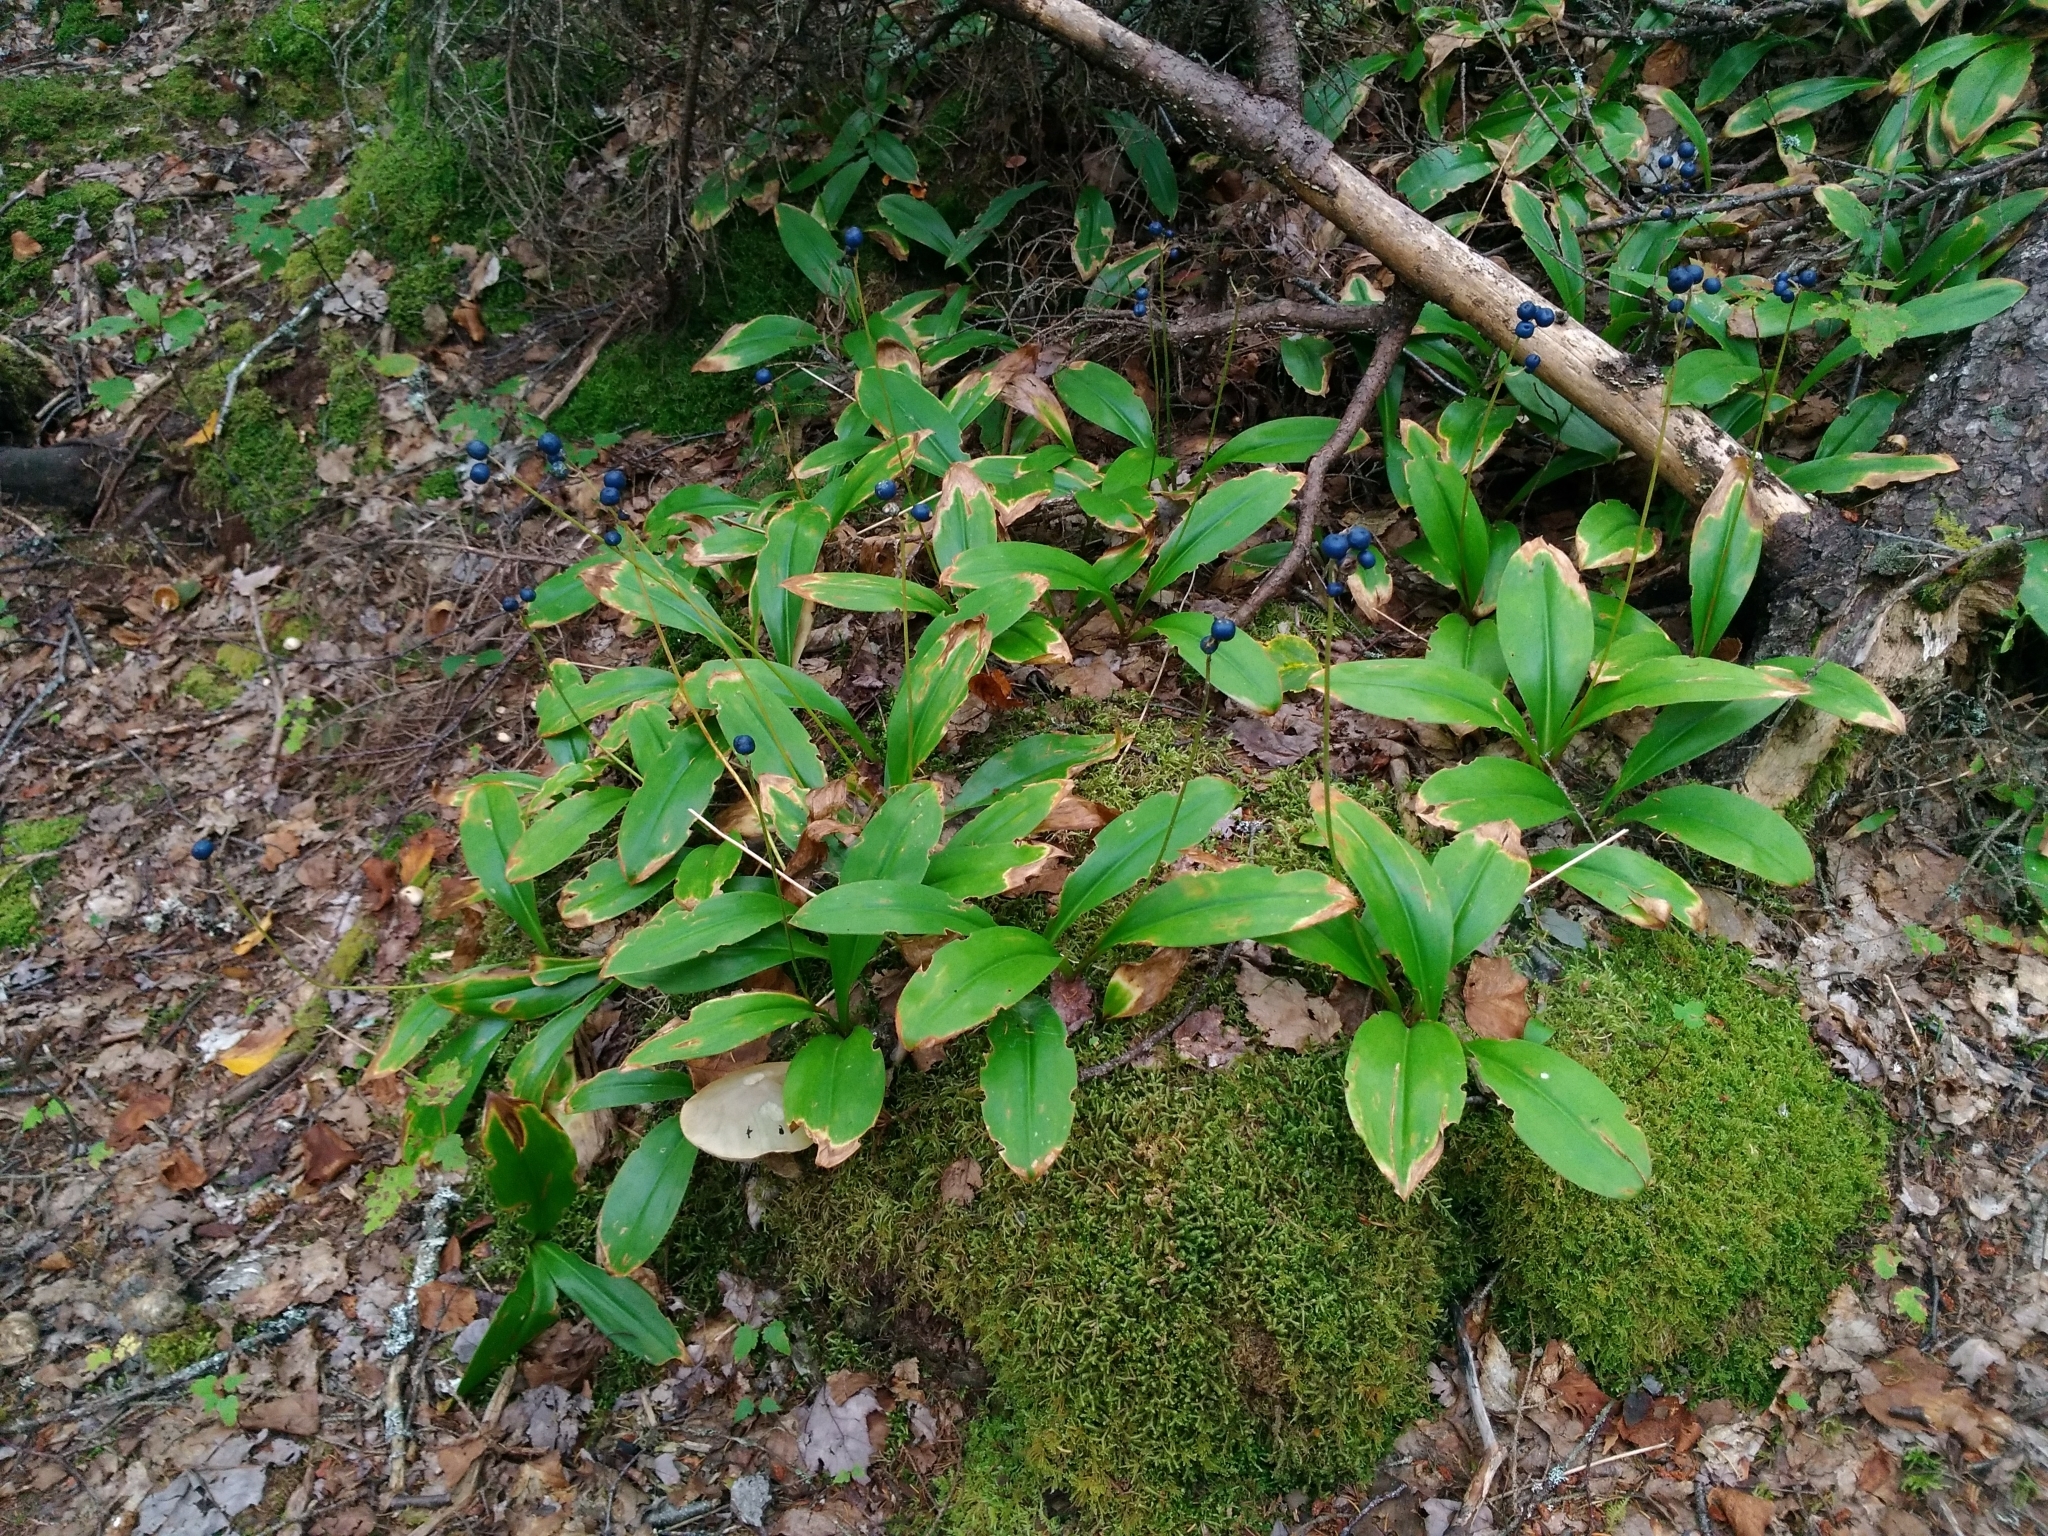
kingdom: Plantae
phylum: Tracheophyta
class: Liliopsida
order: Liliales
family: Liliaceae
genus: Clintonia
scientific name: Clintonia borealis
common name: Yellow clintonia
